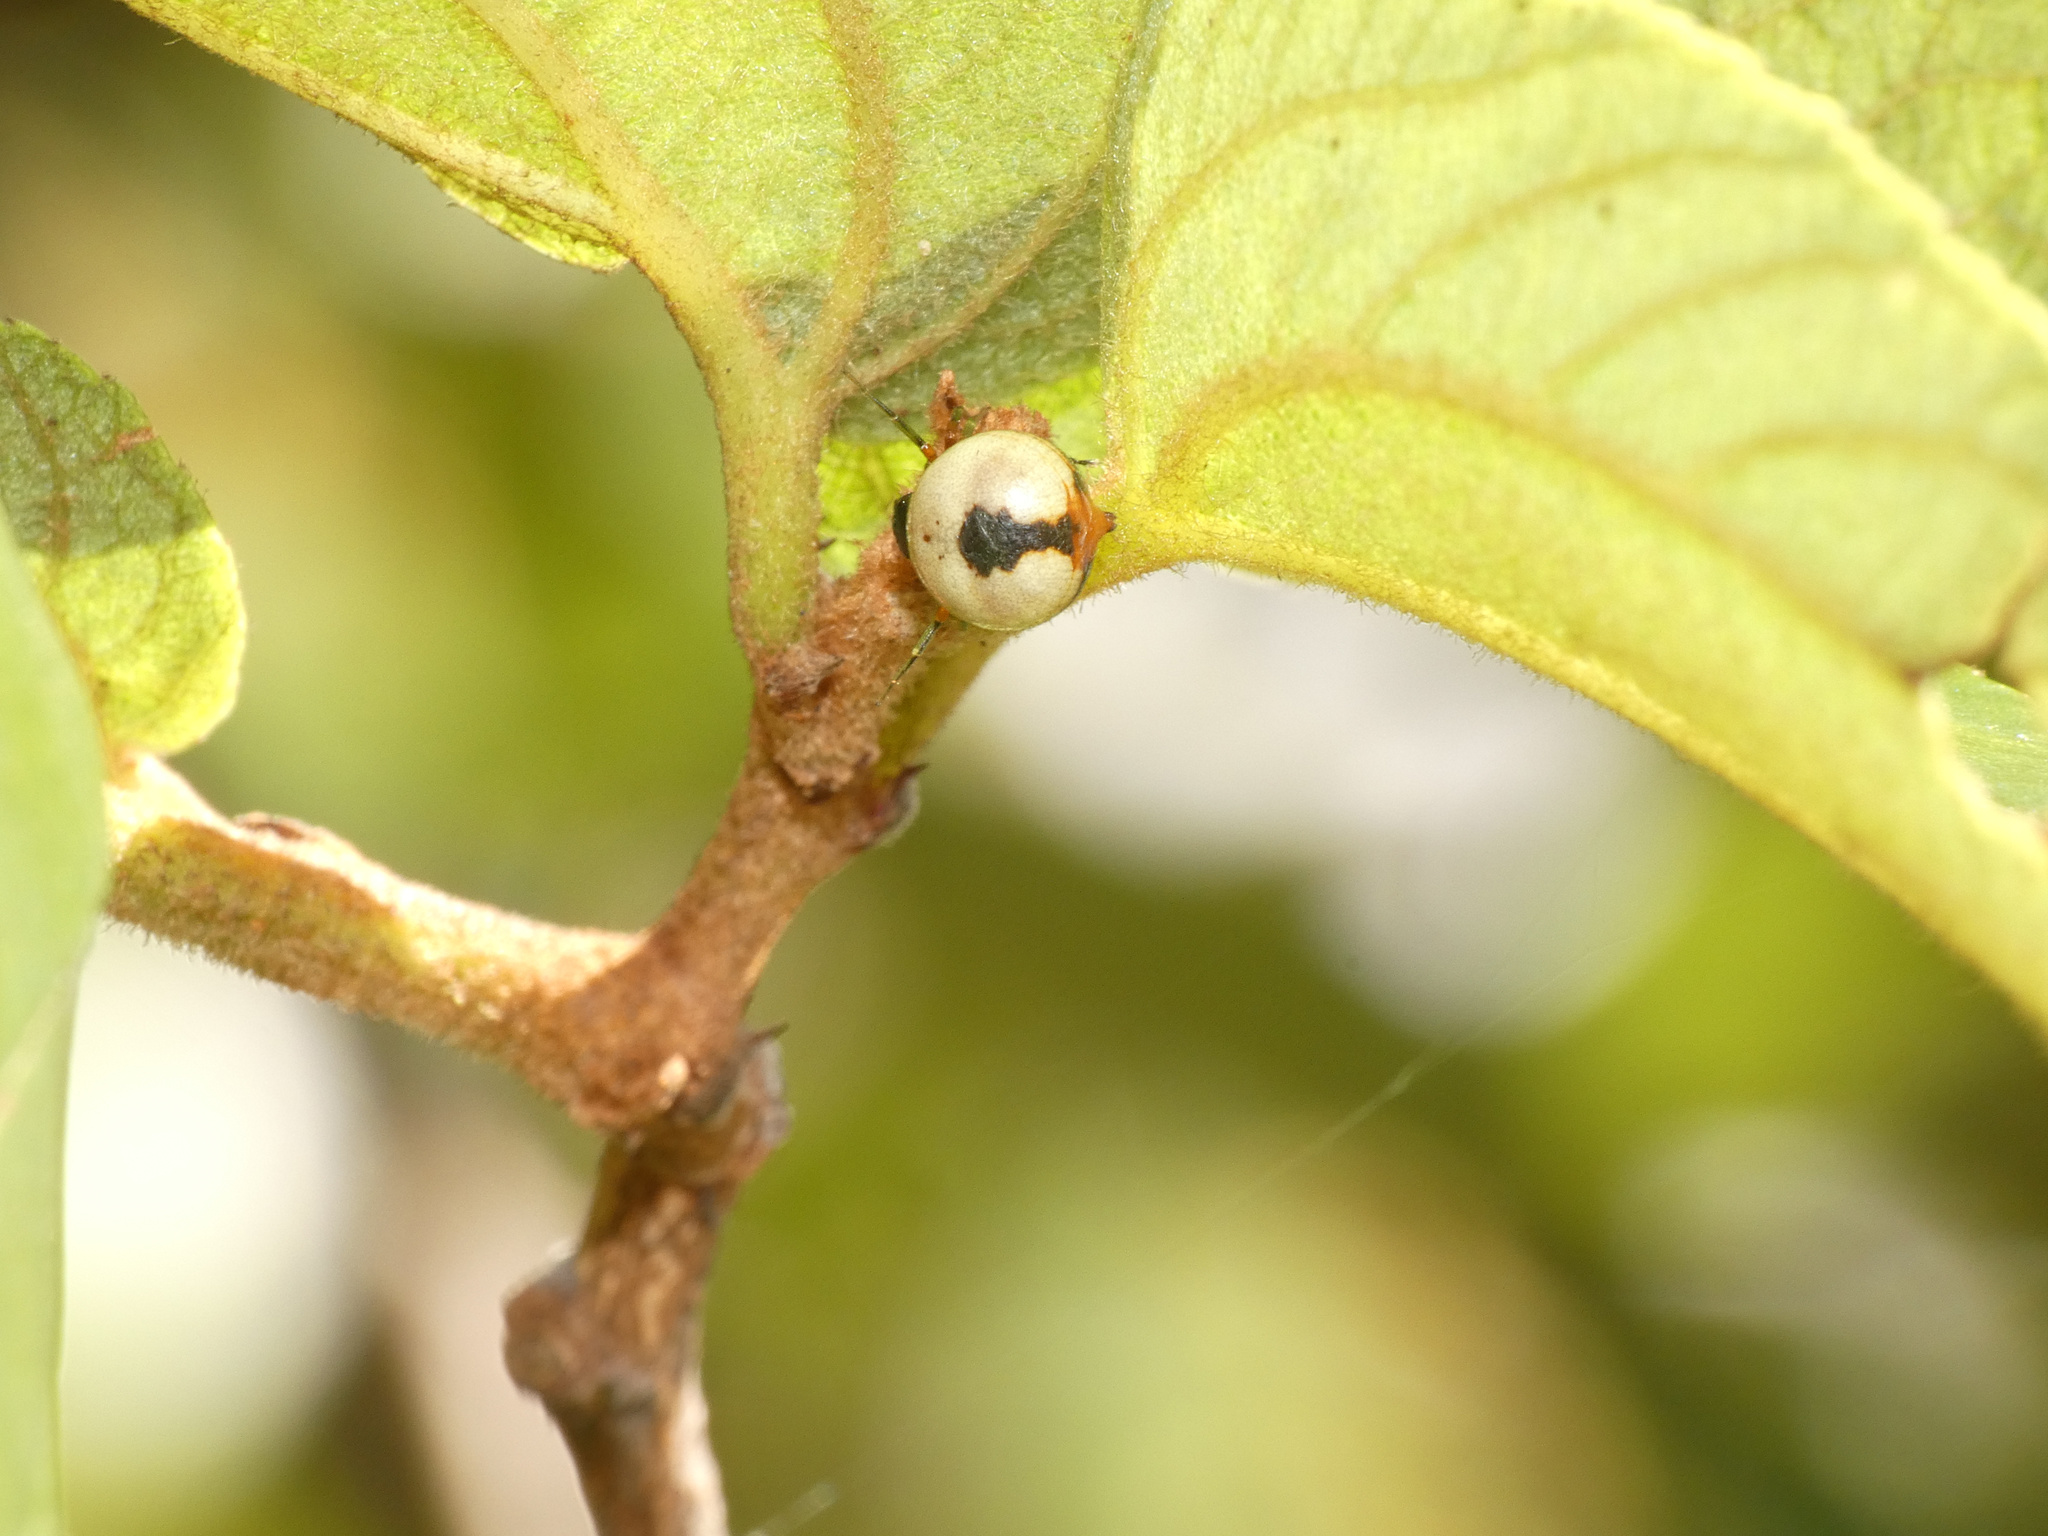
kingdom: Animalia
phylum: Arthropoda
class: Arachnida
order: Araneae
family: Thomisidae
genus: Mystaria
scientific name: Mystaria savannensis
